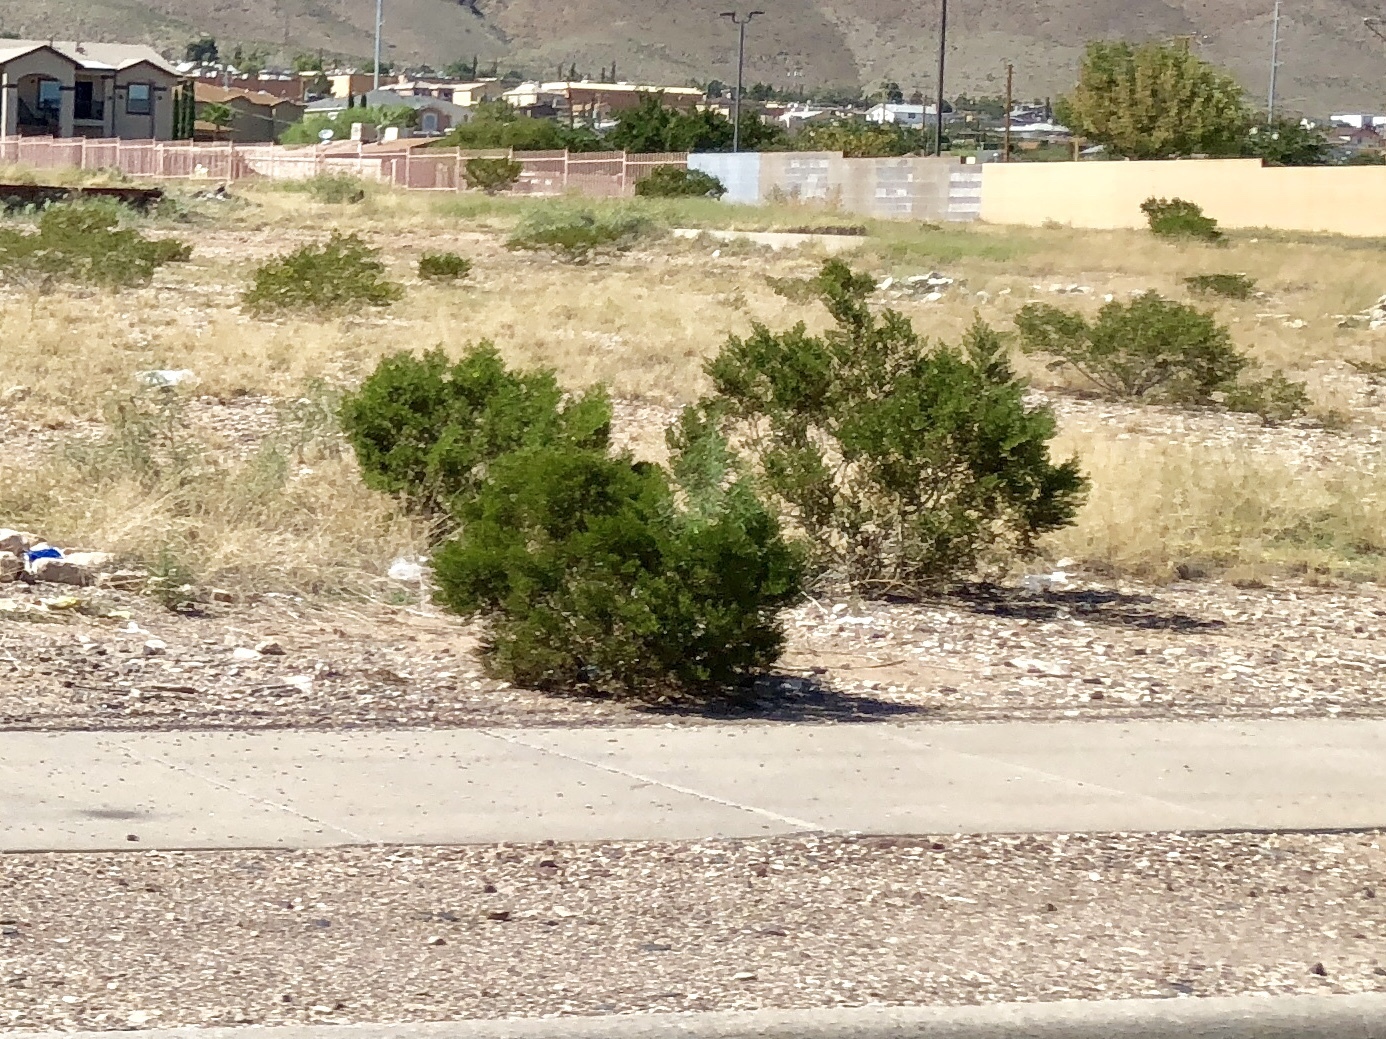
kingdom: Plantae
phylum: Tracheophyta
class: Magnoliopsida
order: Zygophyllales
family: Zygophyllaceae
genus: Larrea
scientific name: Larrea tridentata
